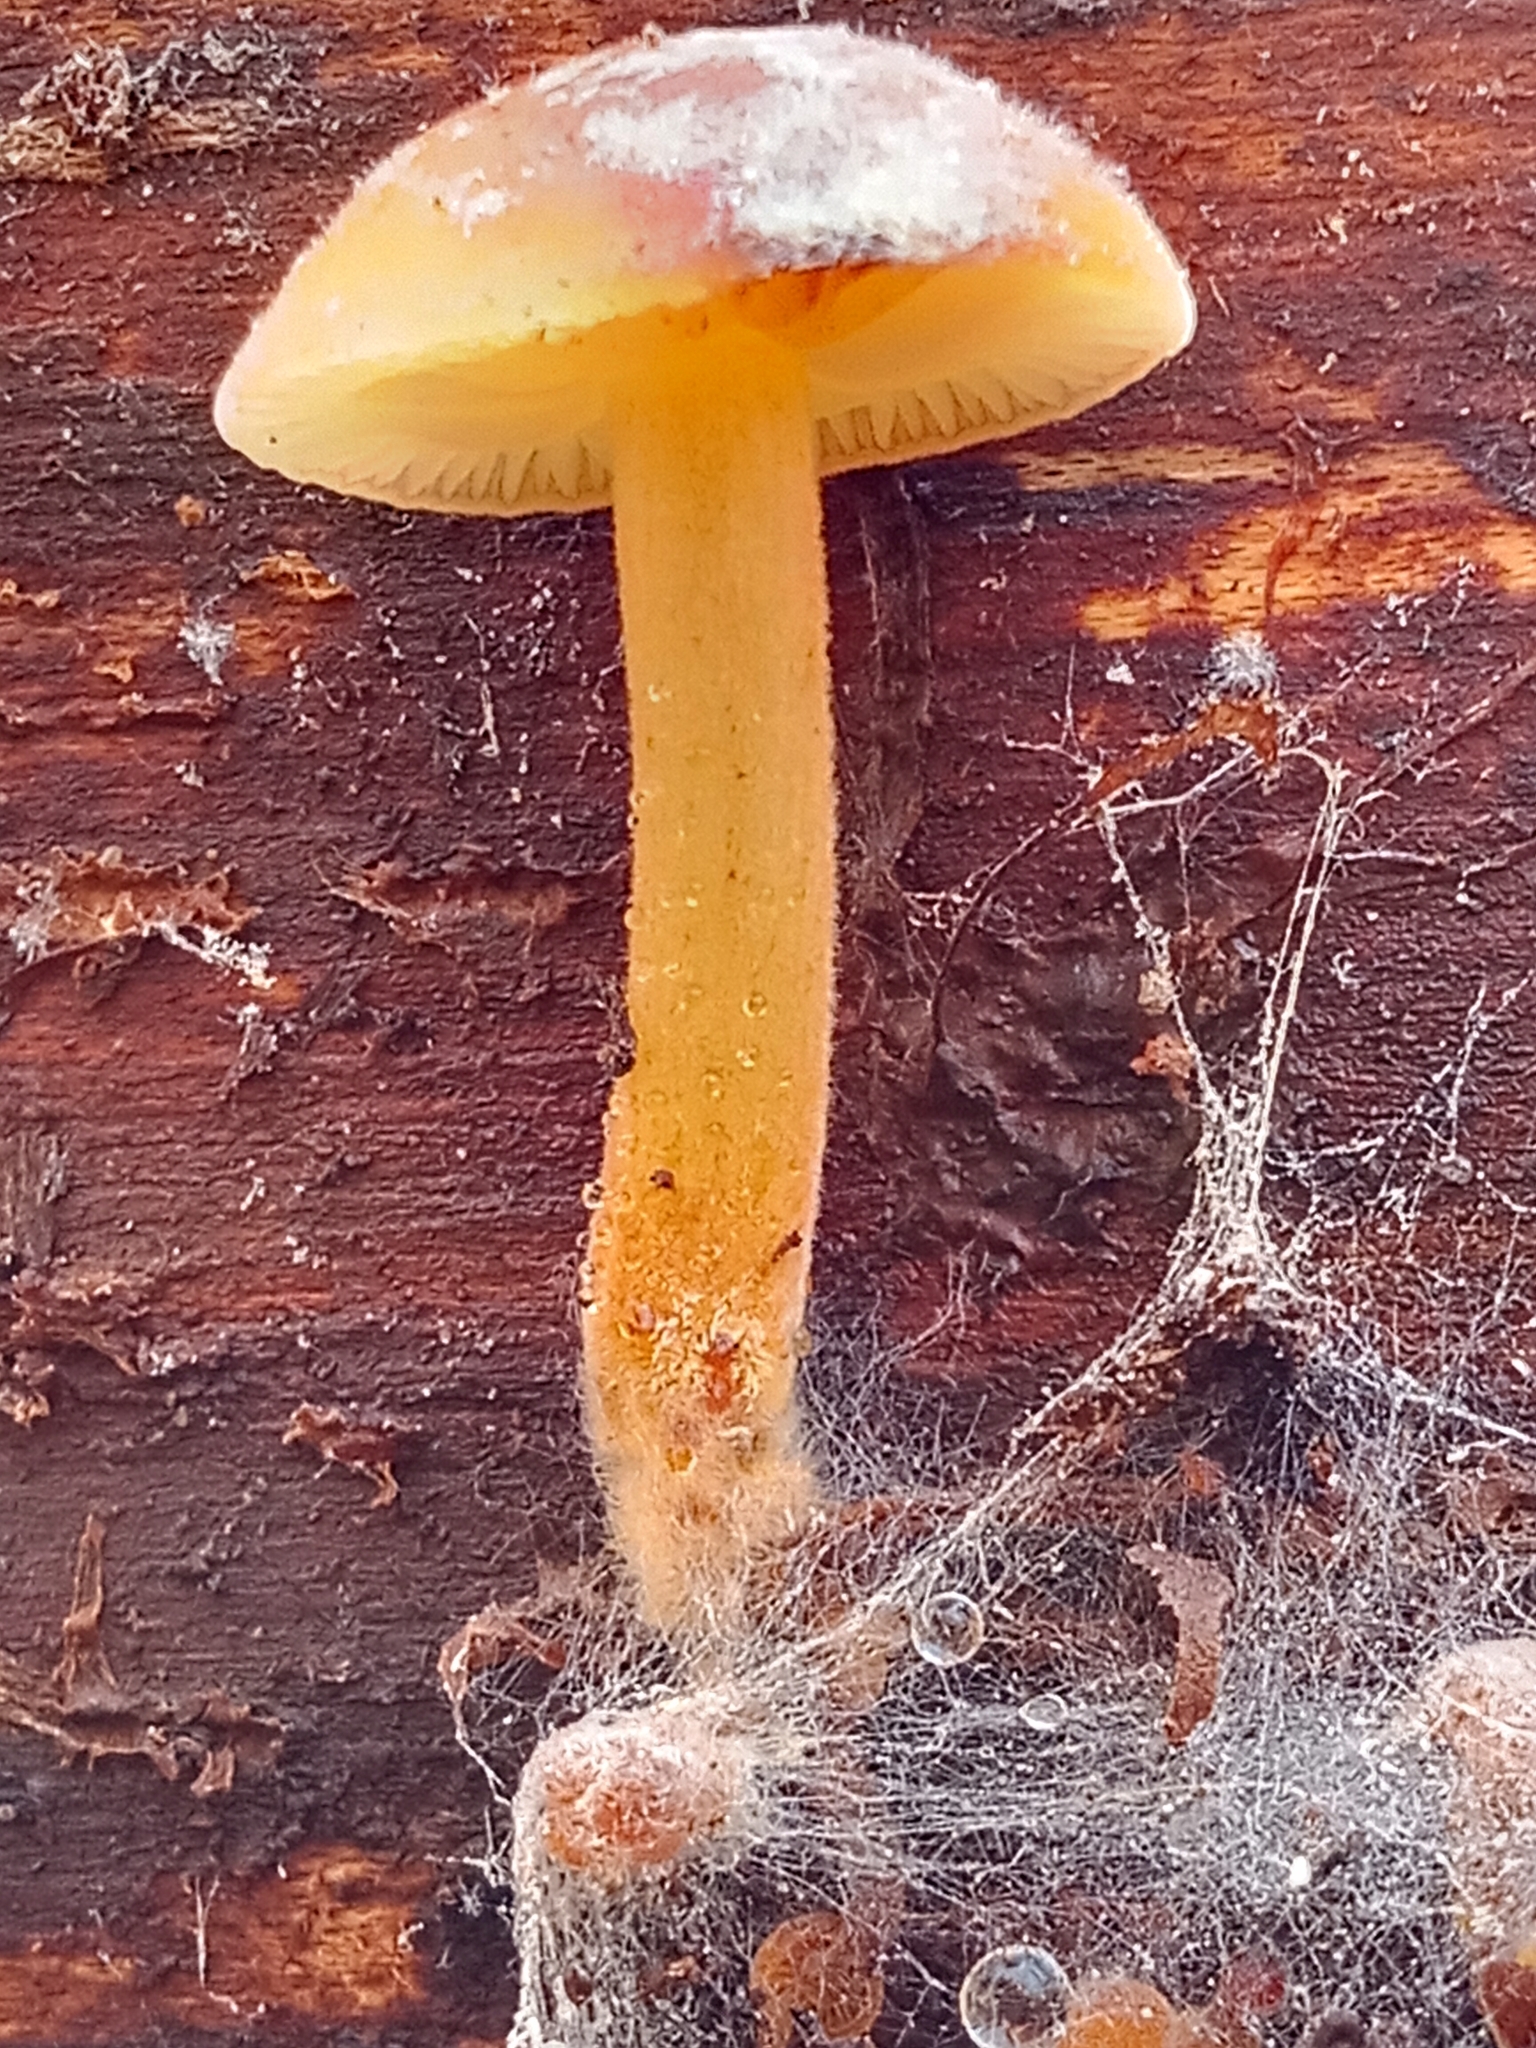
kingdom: Fungi
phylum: Basidiomycota
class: Agaricomycetes
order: Agaricales
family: Physalacriaceae
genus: Flammulina
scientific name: Flammulina
